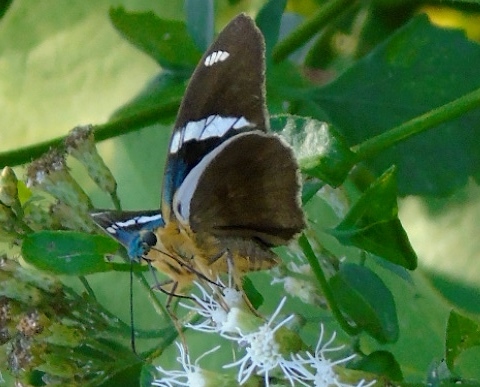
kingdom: Animalia
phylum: Arthropoda
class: Insecta
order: Lepidoptera
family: Hesperiidae
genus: Astraptes
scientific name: Astraptes fulgerator
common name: Two-barred flasher
